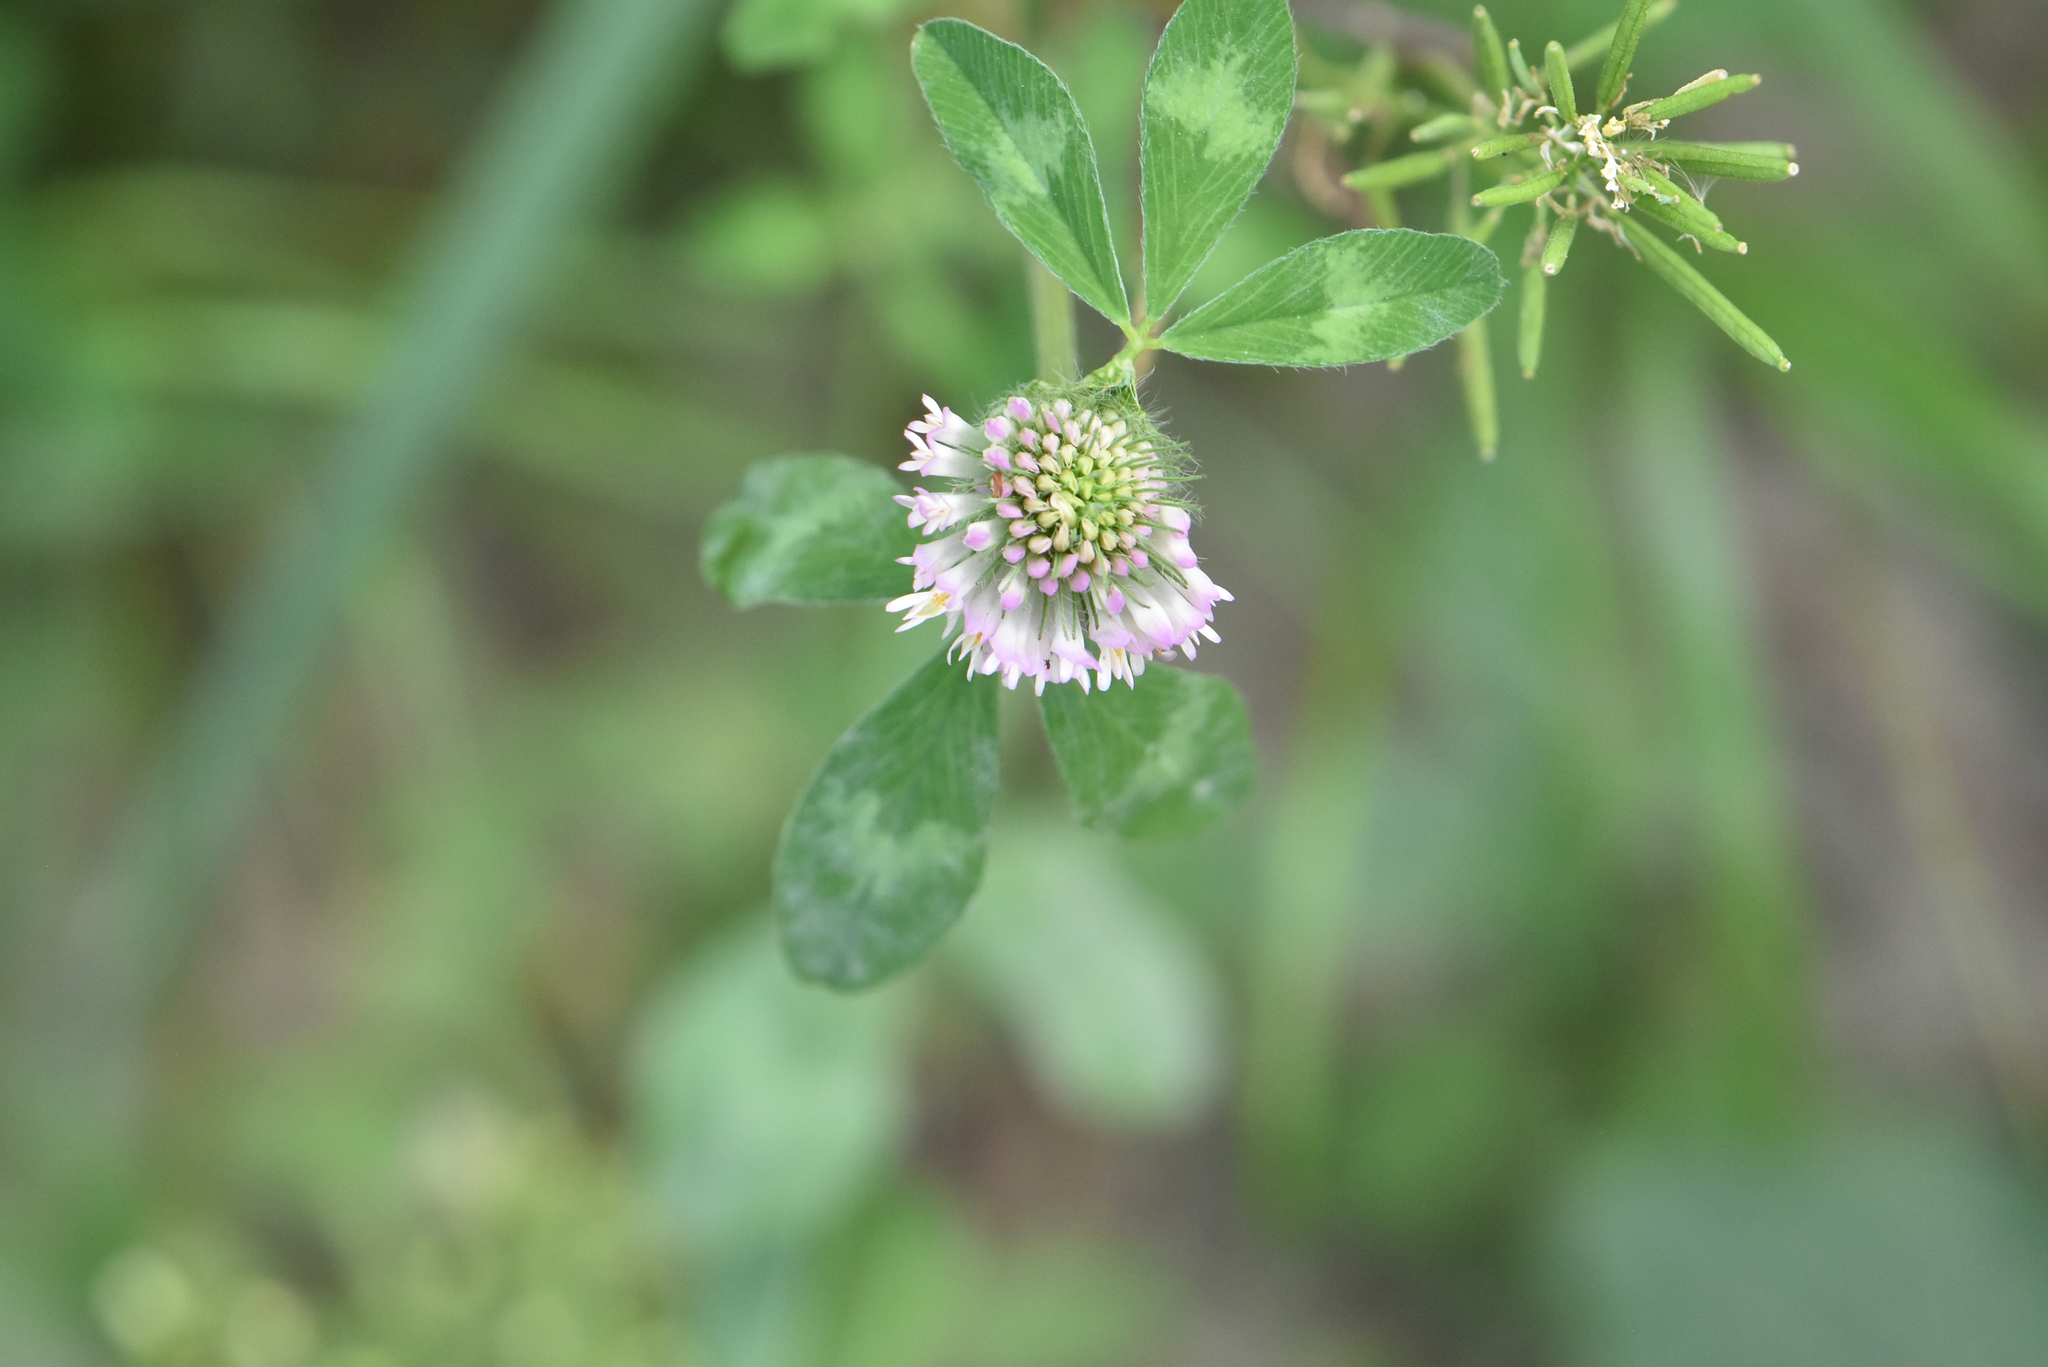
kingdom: Plantae
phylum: Tracheophyta
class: Magnoliopsida
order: Fabales
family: Fabaceae
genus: Trifolium
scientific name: Trifolium pratense
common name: Red clover
